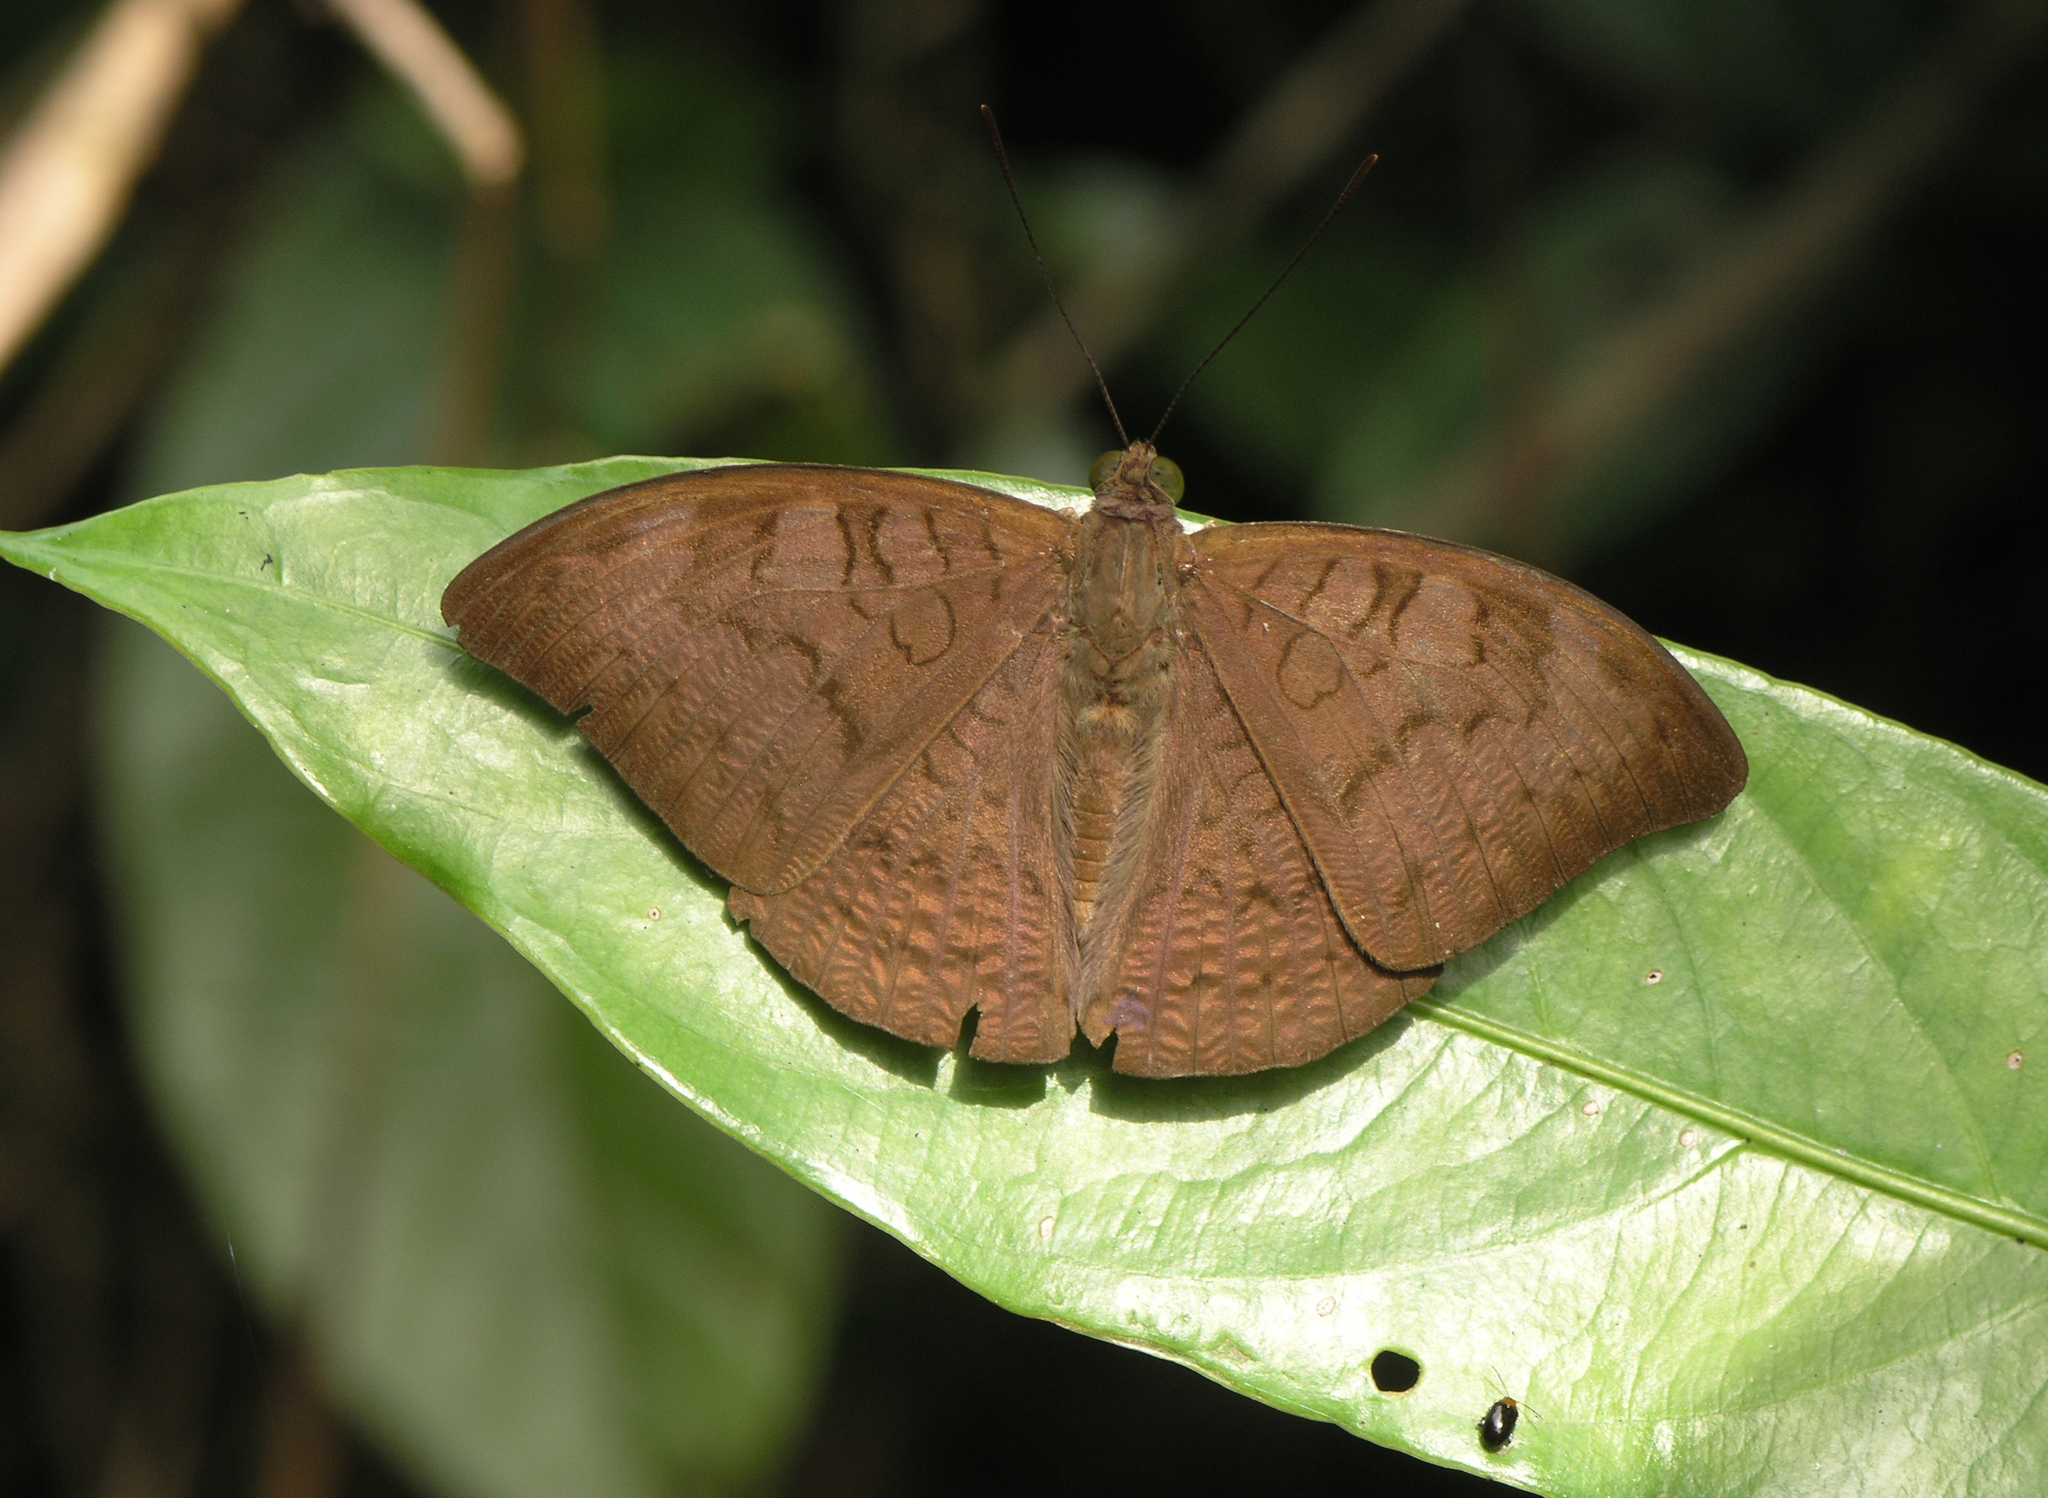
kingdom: Animalia
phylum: Arthropoda
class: Insecta
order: Lepidoptera
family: Nymphalidae
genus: Tanaecia
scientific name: Tanaecia jahnu
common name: Plain earl
